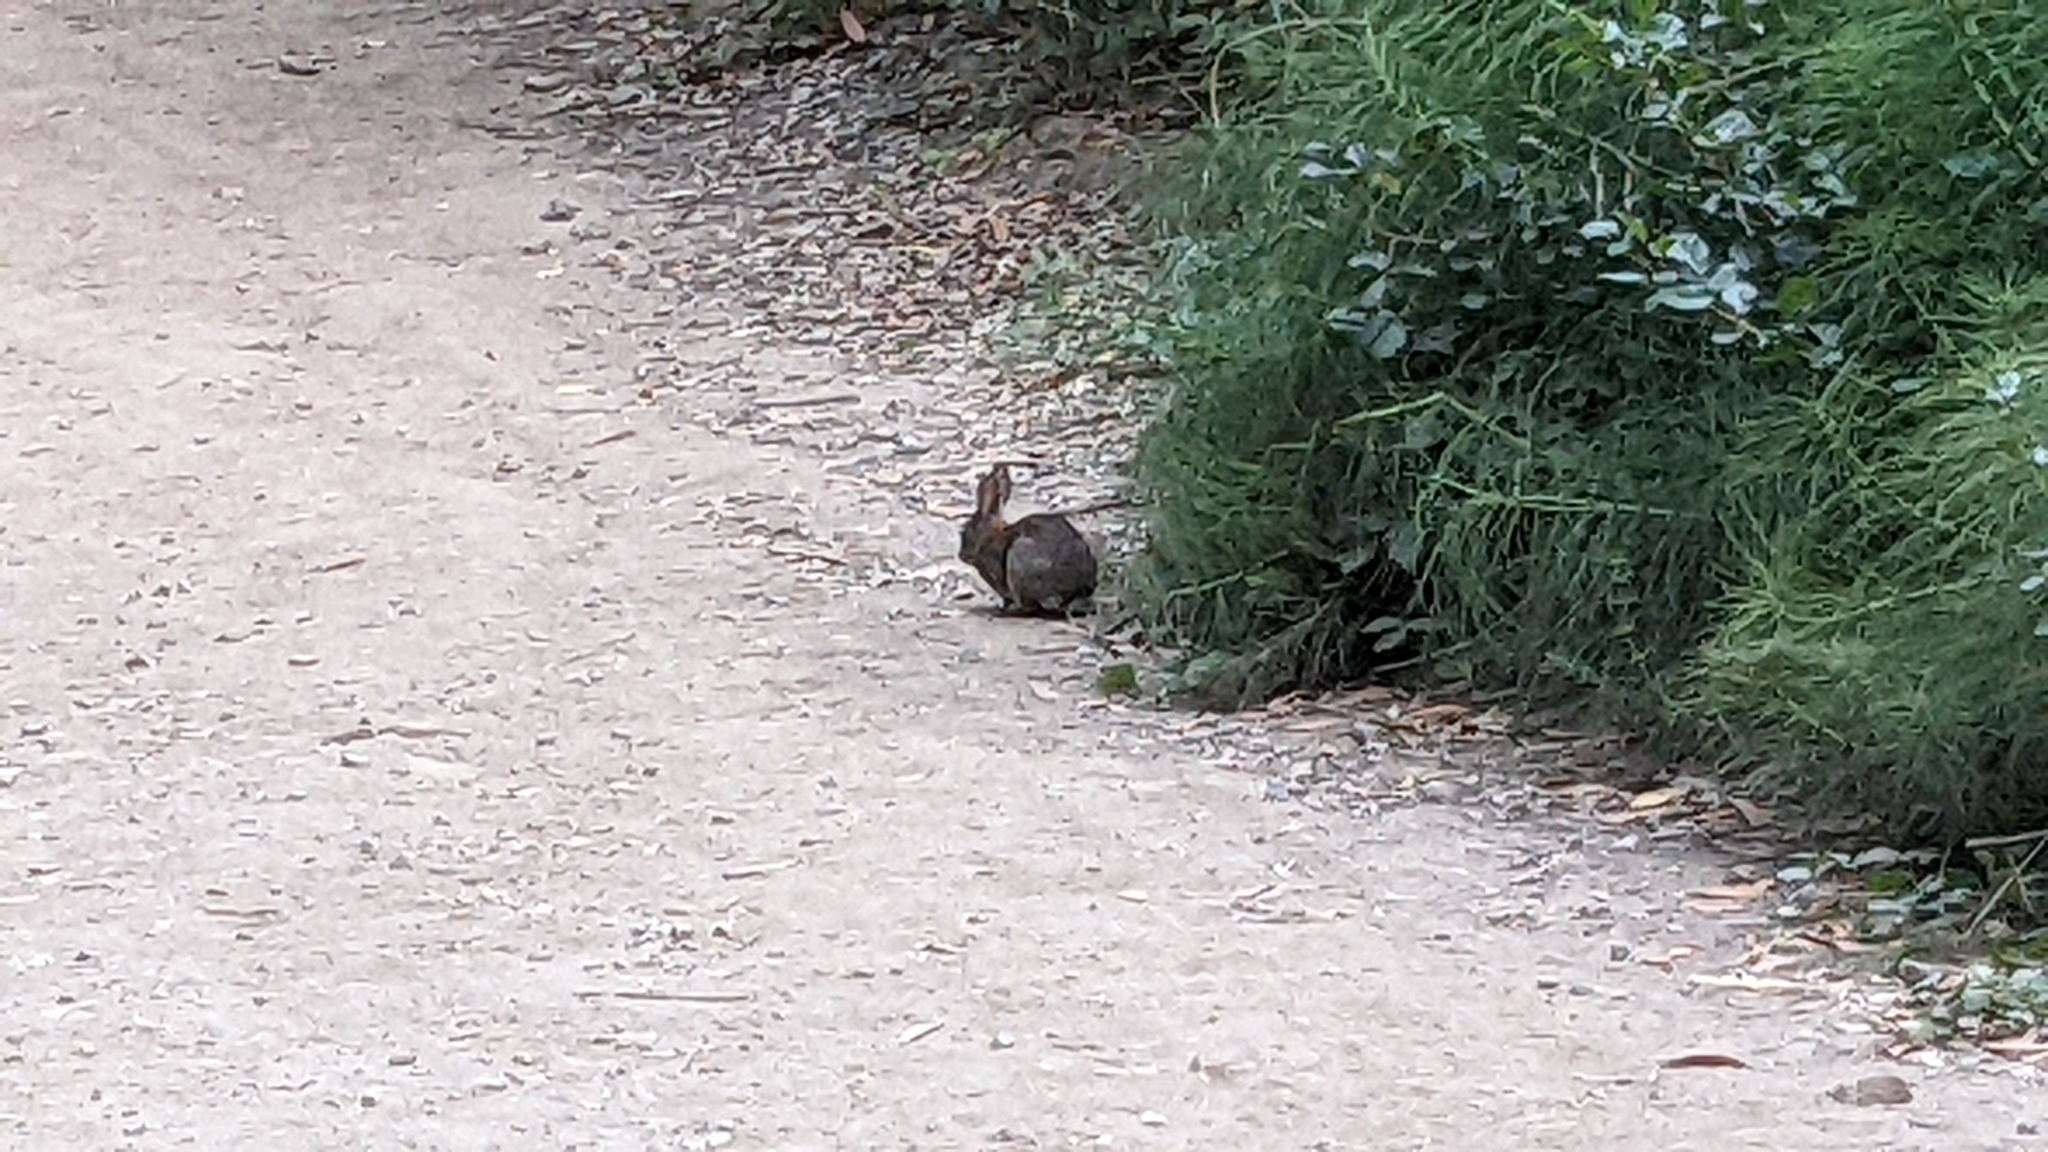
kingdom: Animalia
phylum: Chordata
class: Mammalia
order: Lagomorpha
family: Leporidae
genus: Sylvilagus
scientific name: Sylvilagus bachmani
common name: Brush rabbit
